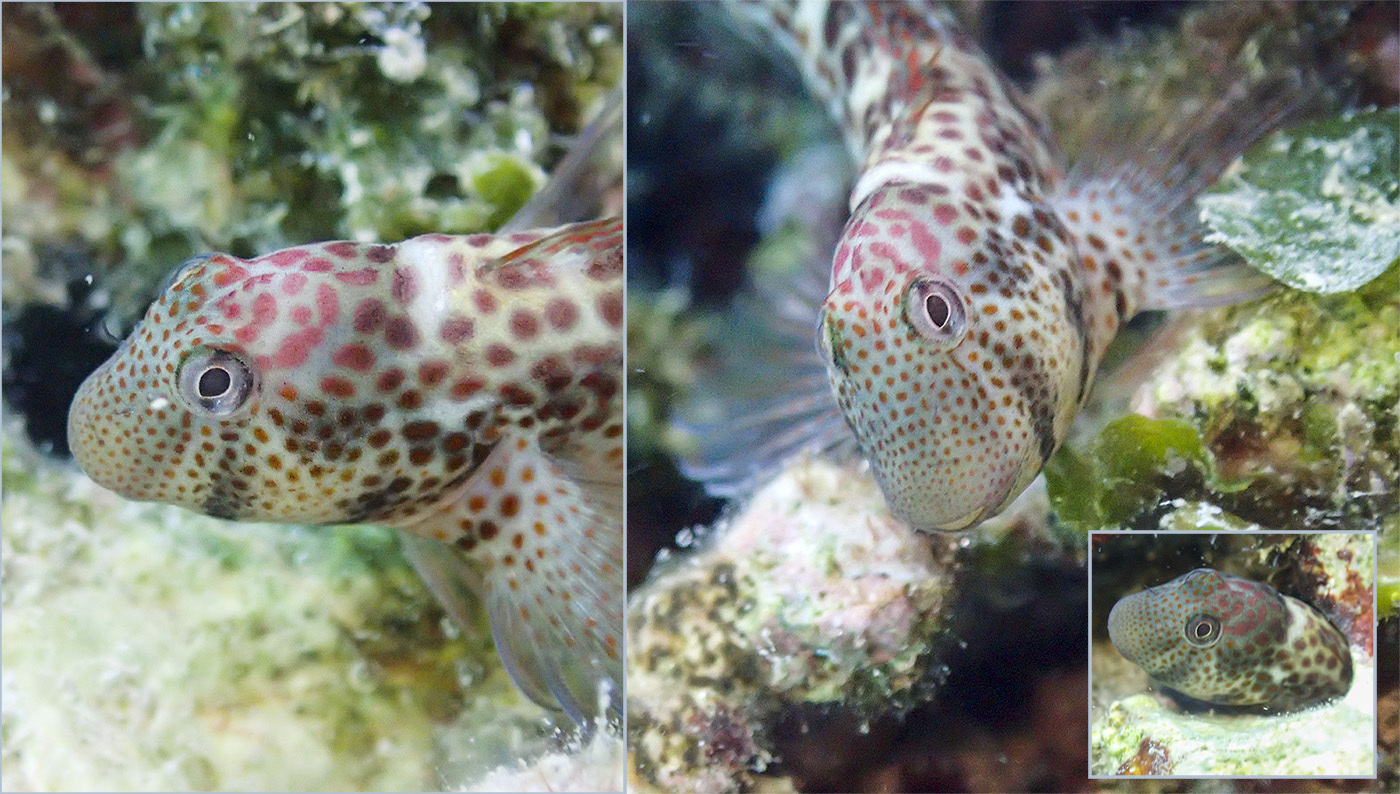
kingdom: Animalia
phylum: Chordata
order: Perciformes
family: Blenniidae
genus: Microlipophrys
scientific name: Microlipophrys canevae
